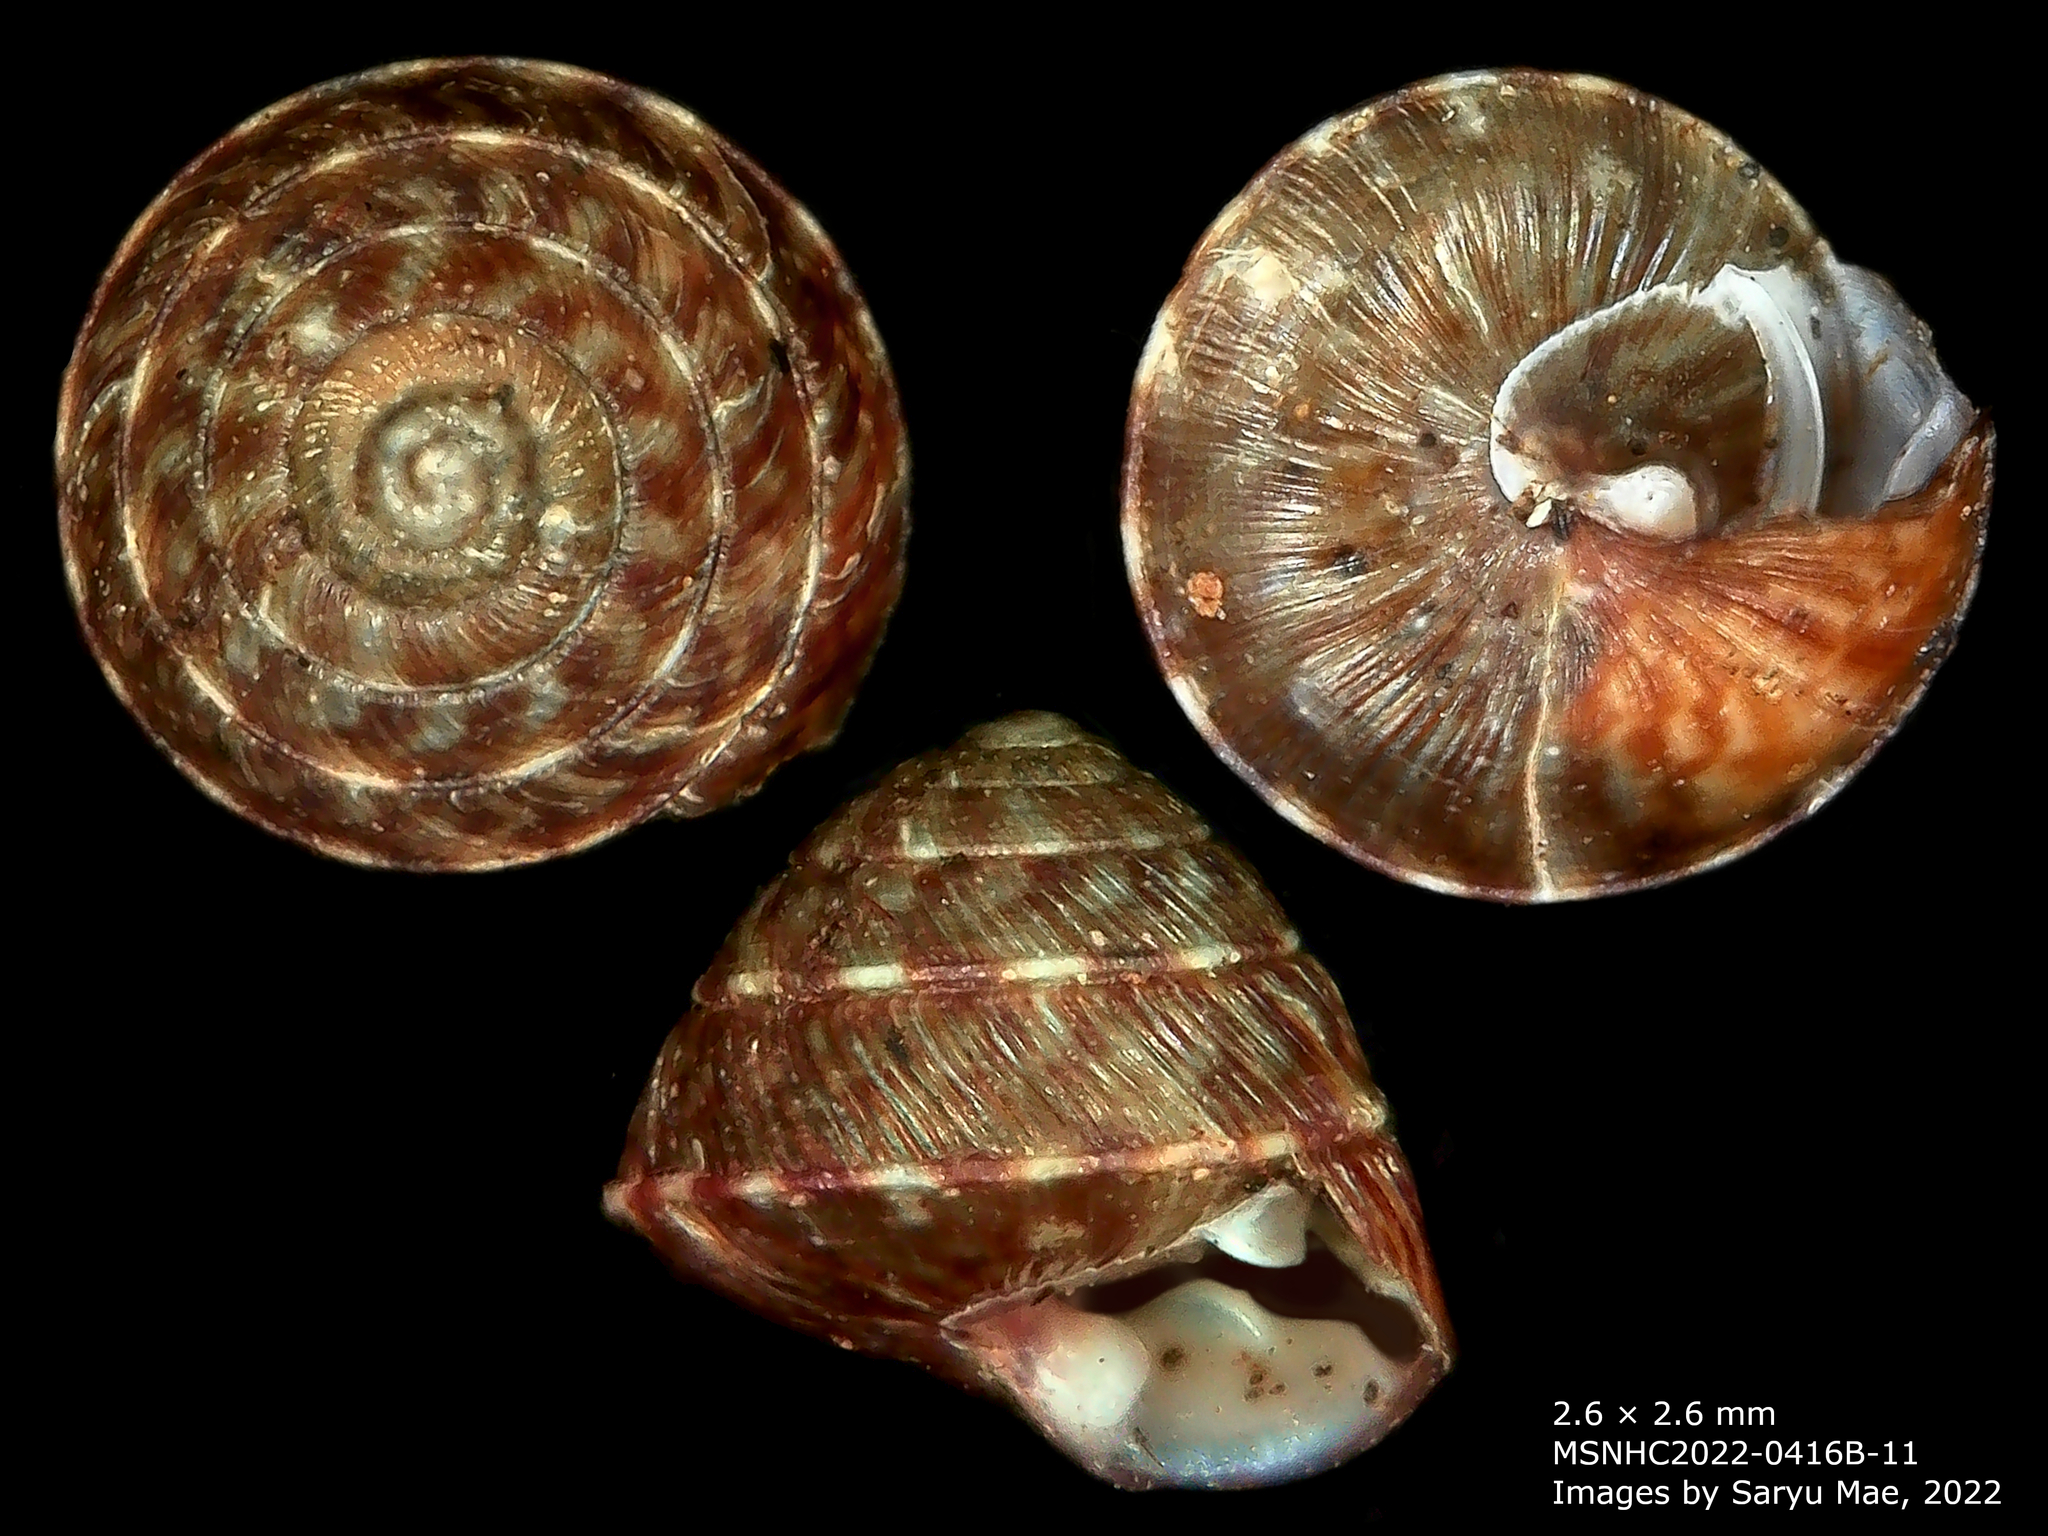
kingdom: Animalia
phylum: Mollusca
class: Gastropoda
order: Stylommatophora
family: Punctidae
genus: Laoma
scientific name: Laoma ordishi
